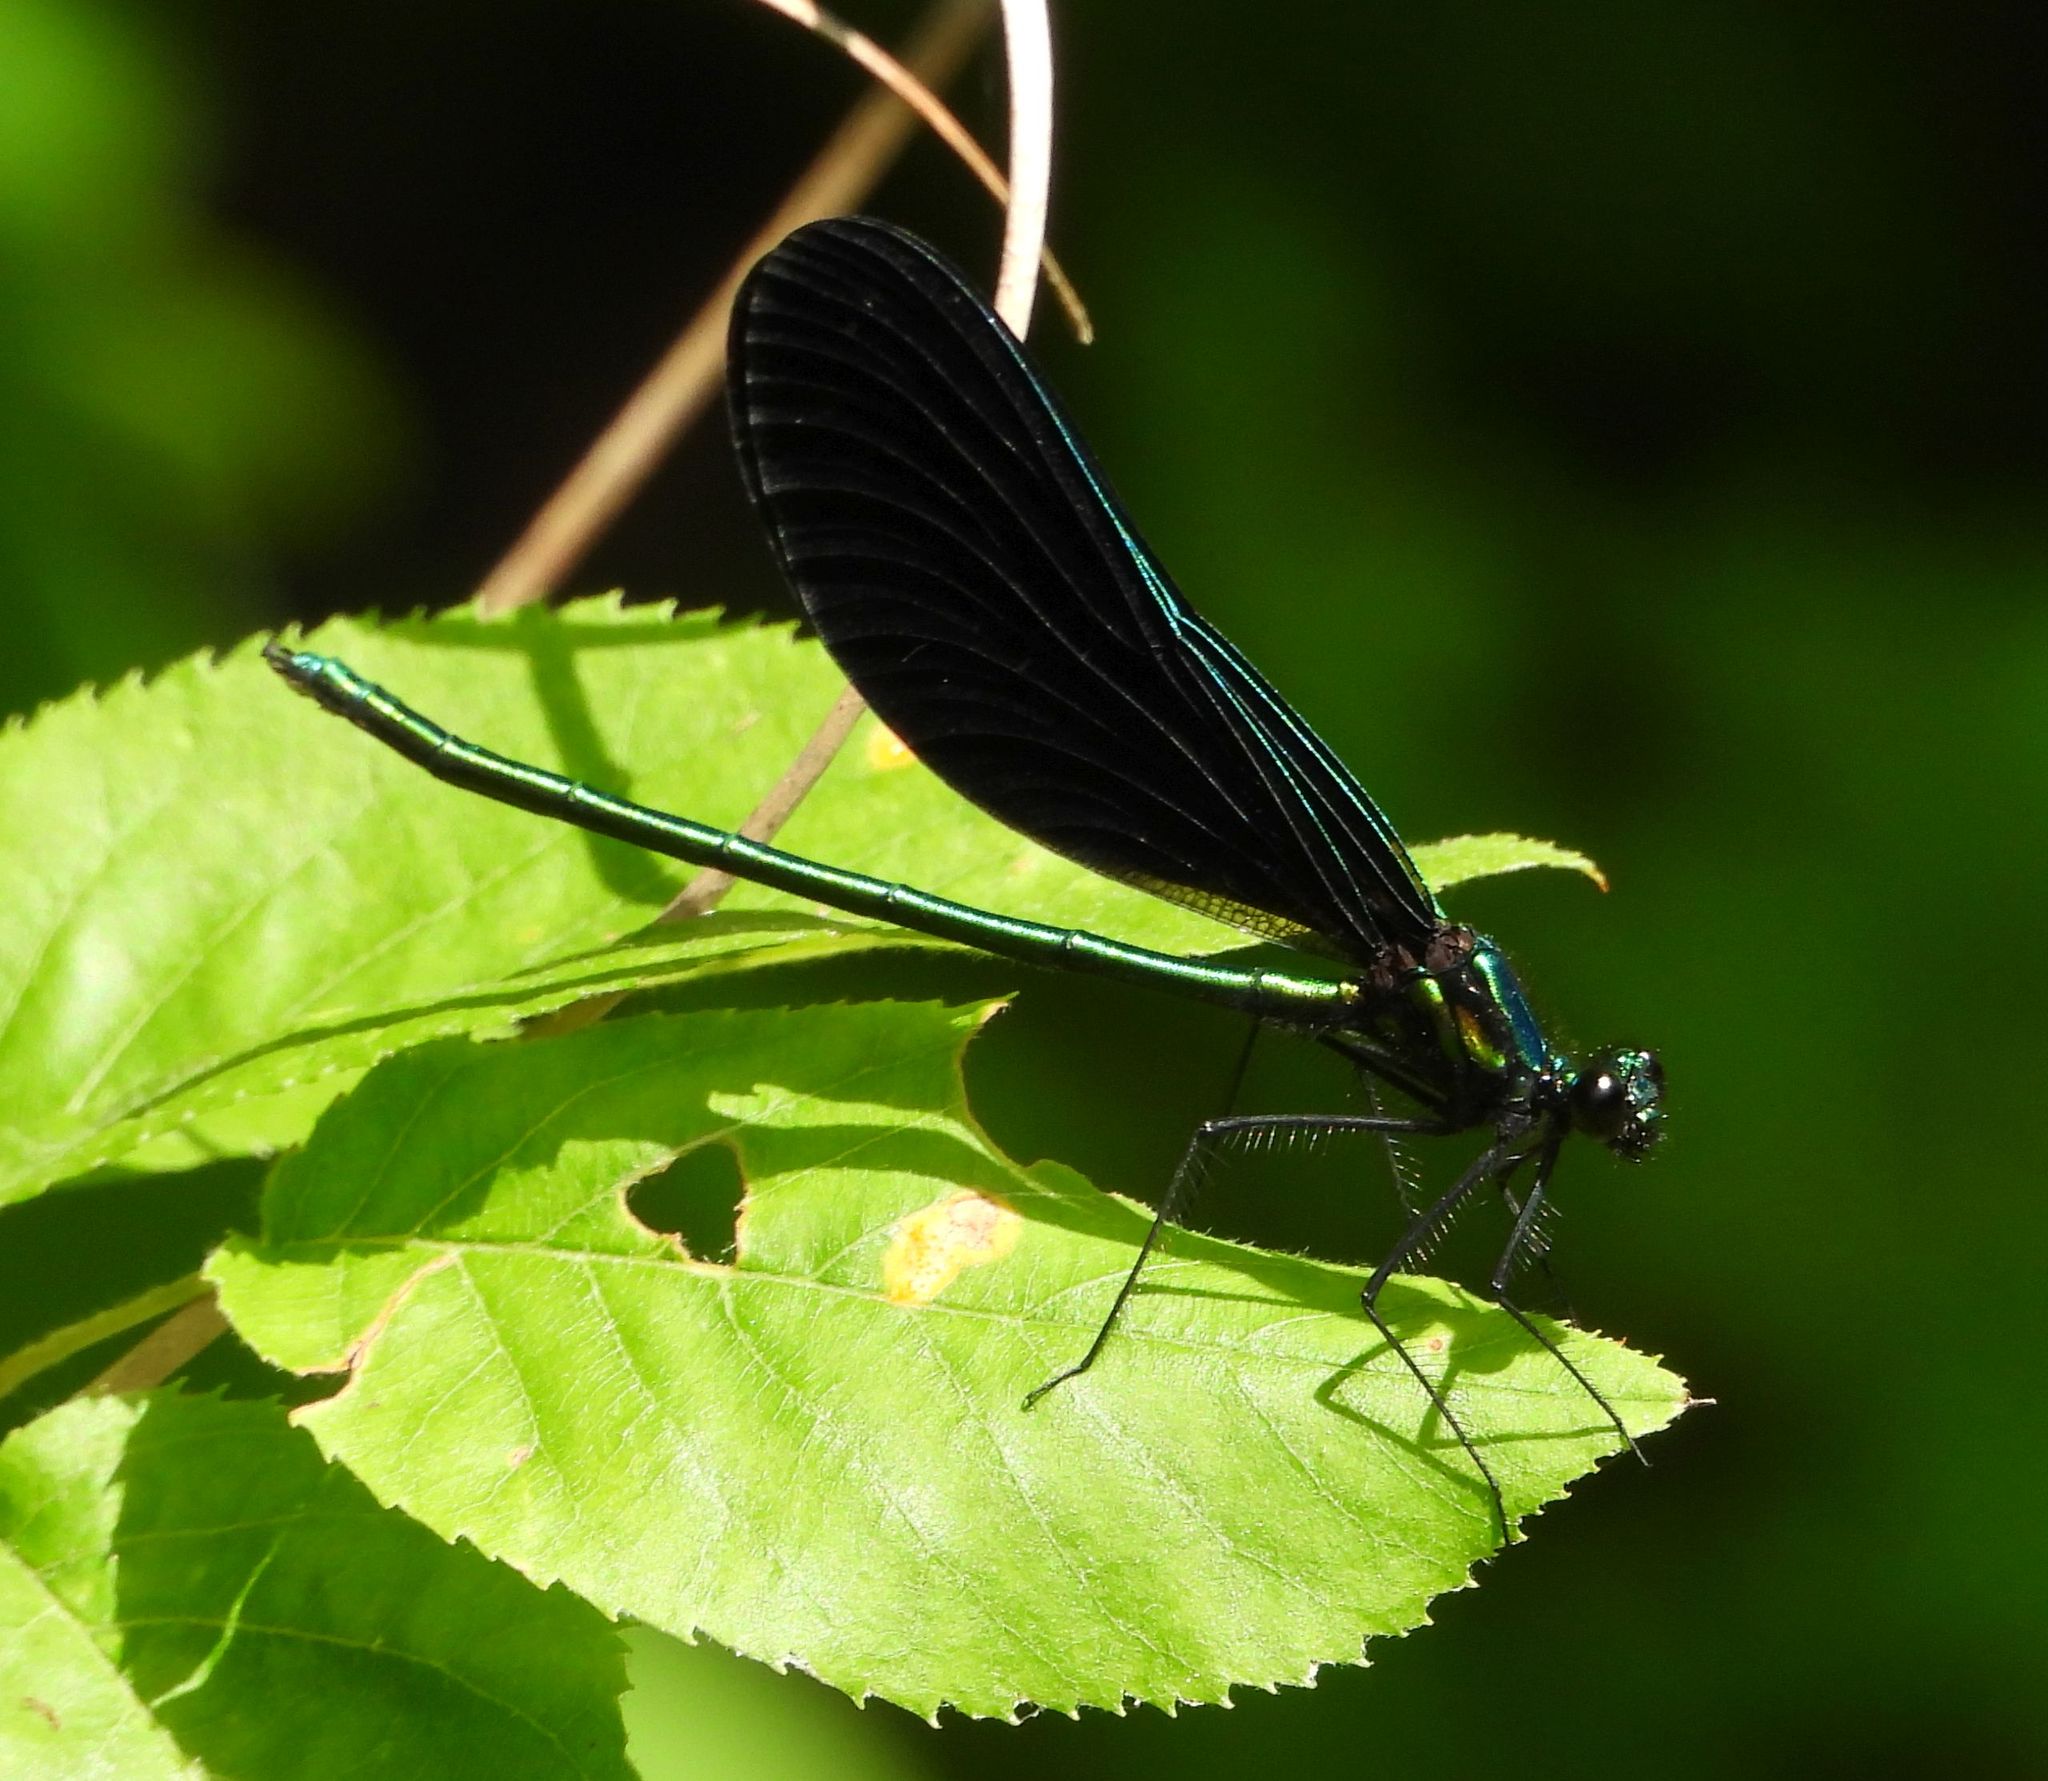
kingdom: Animalia
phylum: Arthropoda
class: Insecta
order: Odonata
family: Calopterygidae
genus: Calopteryx
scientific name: Calopteryx maculata
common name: Ebony jewelwing
